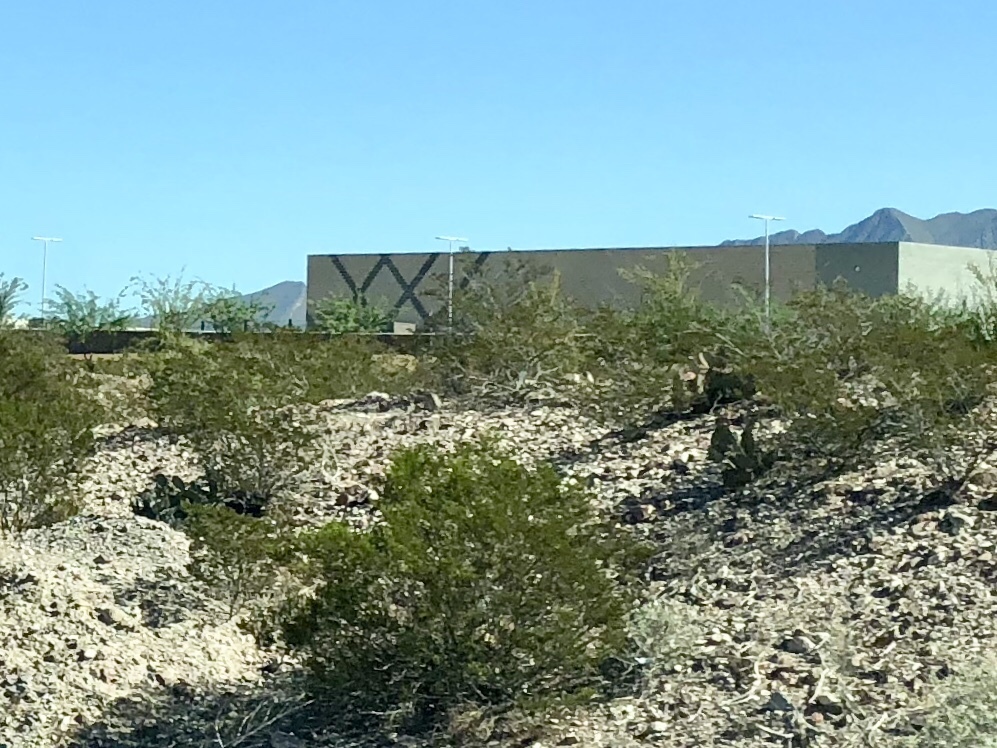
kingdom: Plantae
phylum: Tracheophyta
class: Magnoliopsida
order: Zygophyllales
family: Zygophyllaceae
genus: Larrea
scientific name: Larrea tridentata
